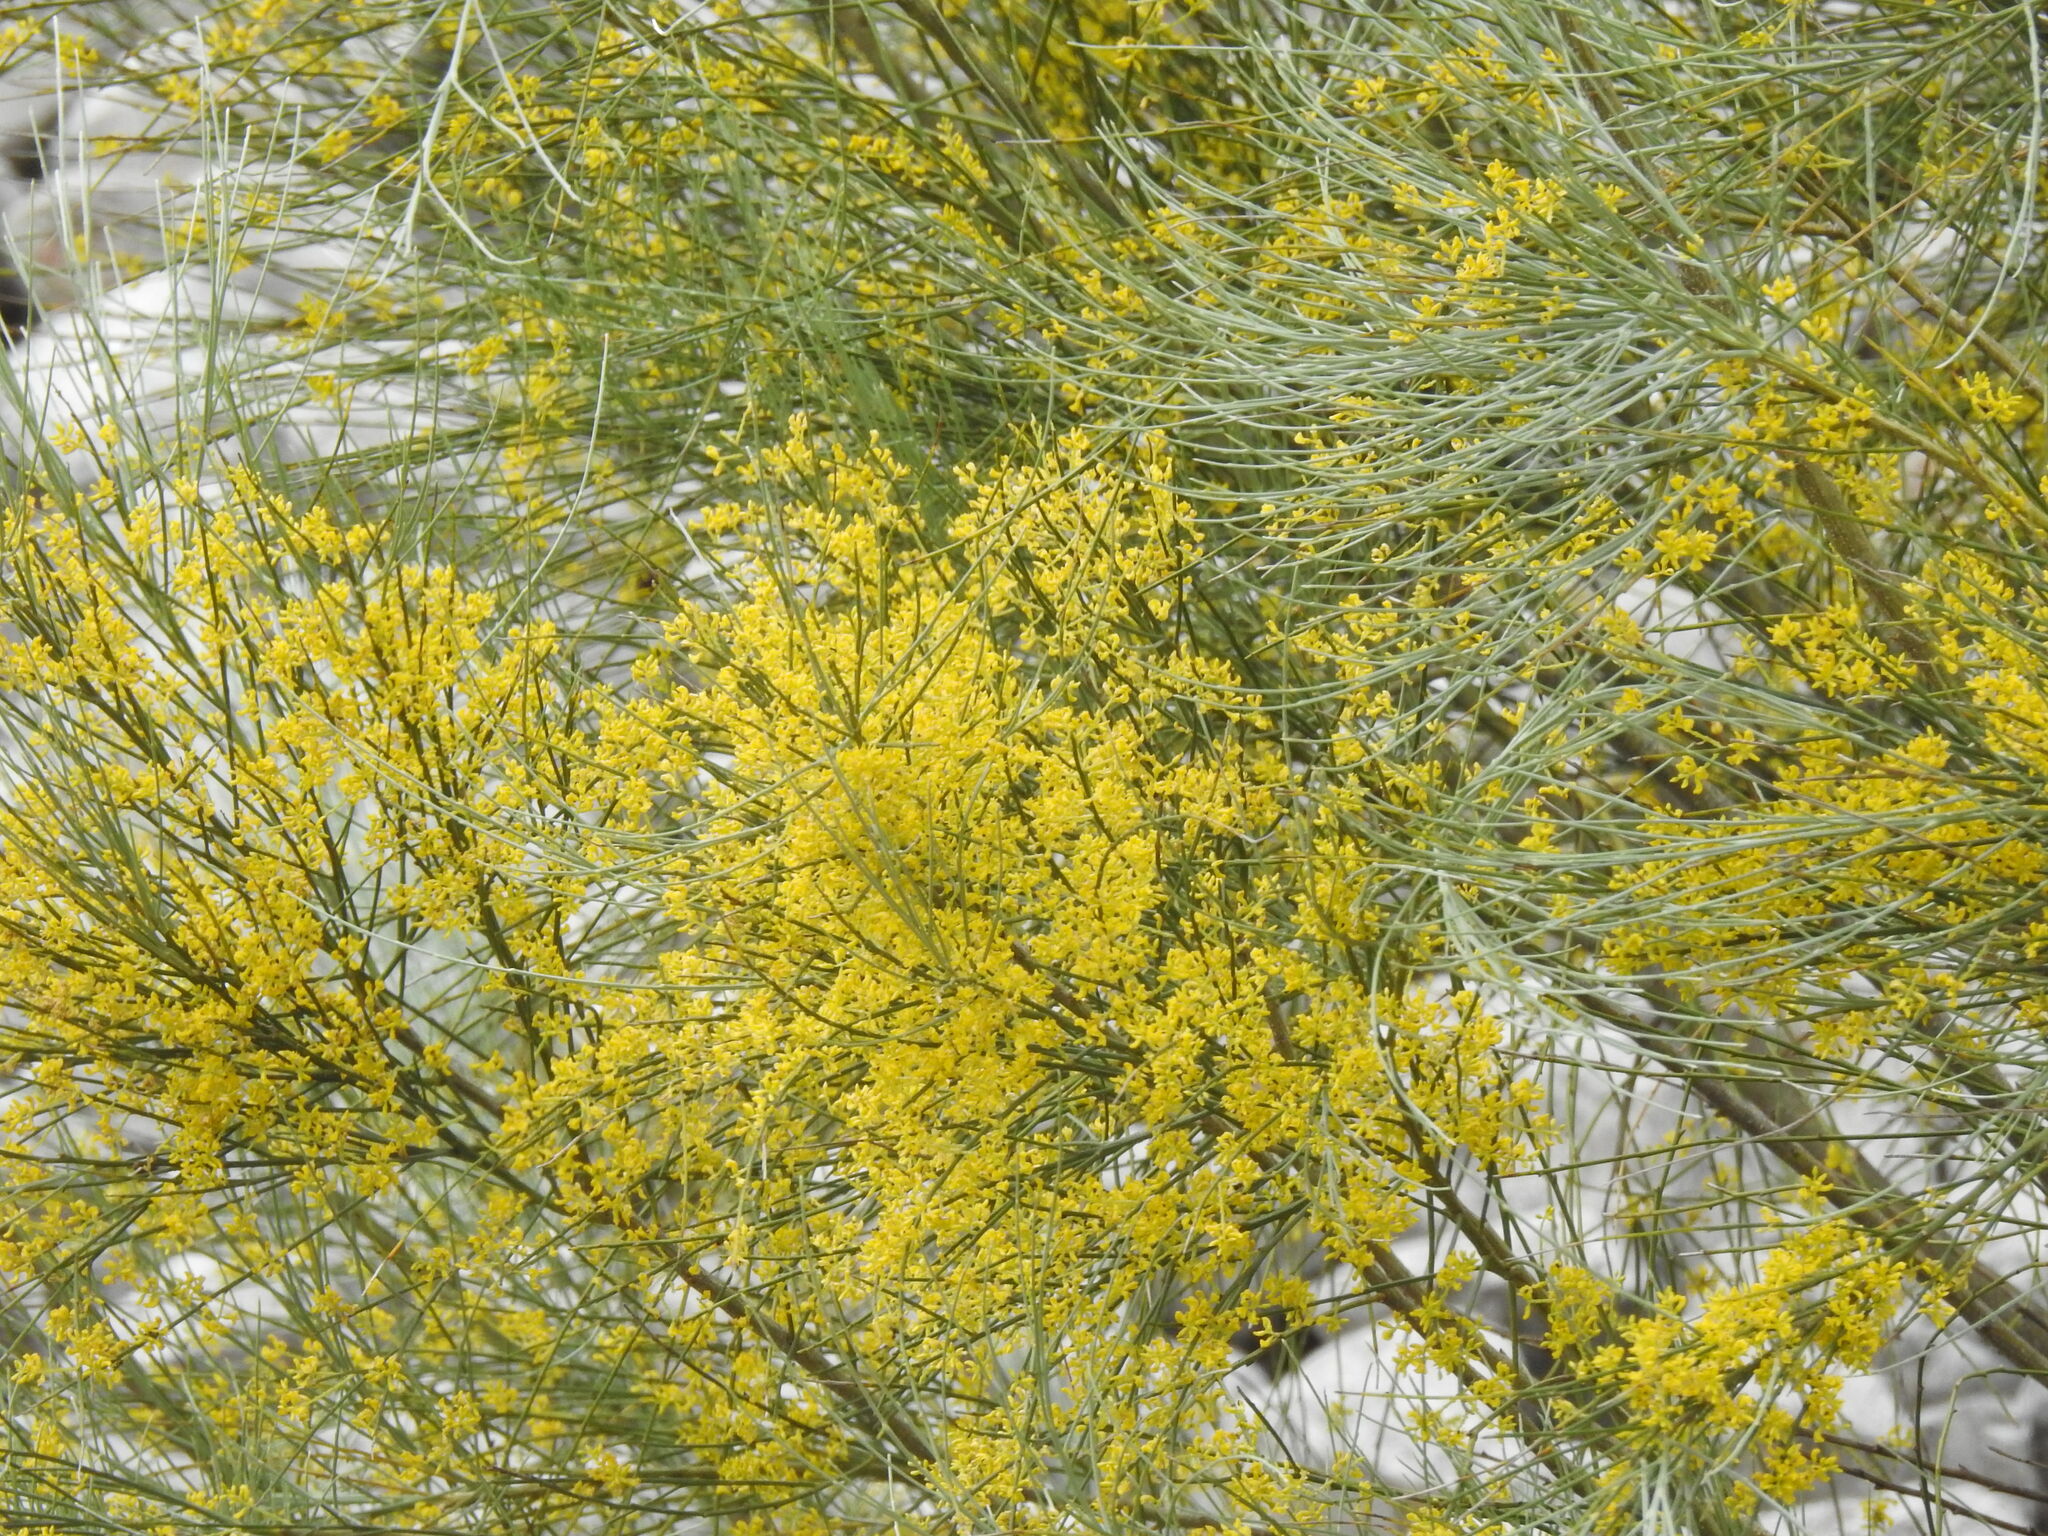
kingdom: Plantae
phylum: Tracheophyta
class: Magnoliopsida
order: Fabales
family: Fabaceae
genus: Retama
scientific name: Retama sphaerocarpa
